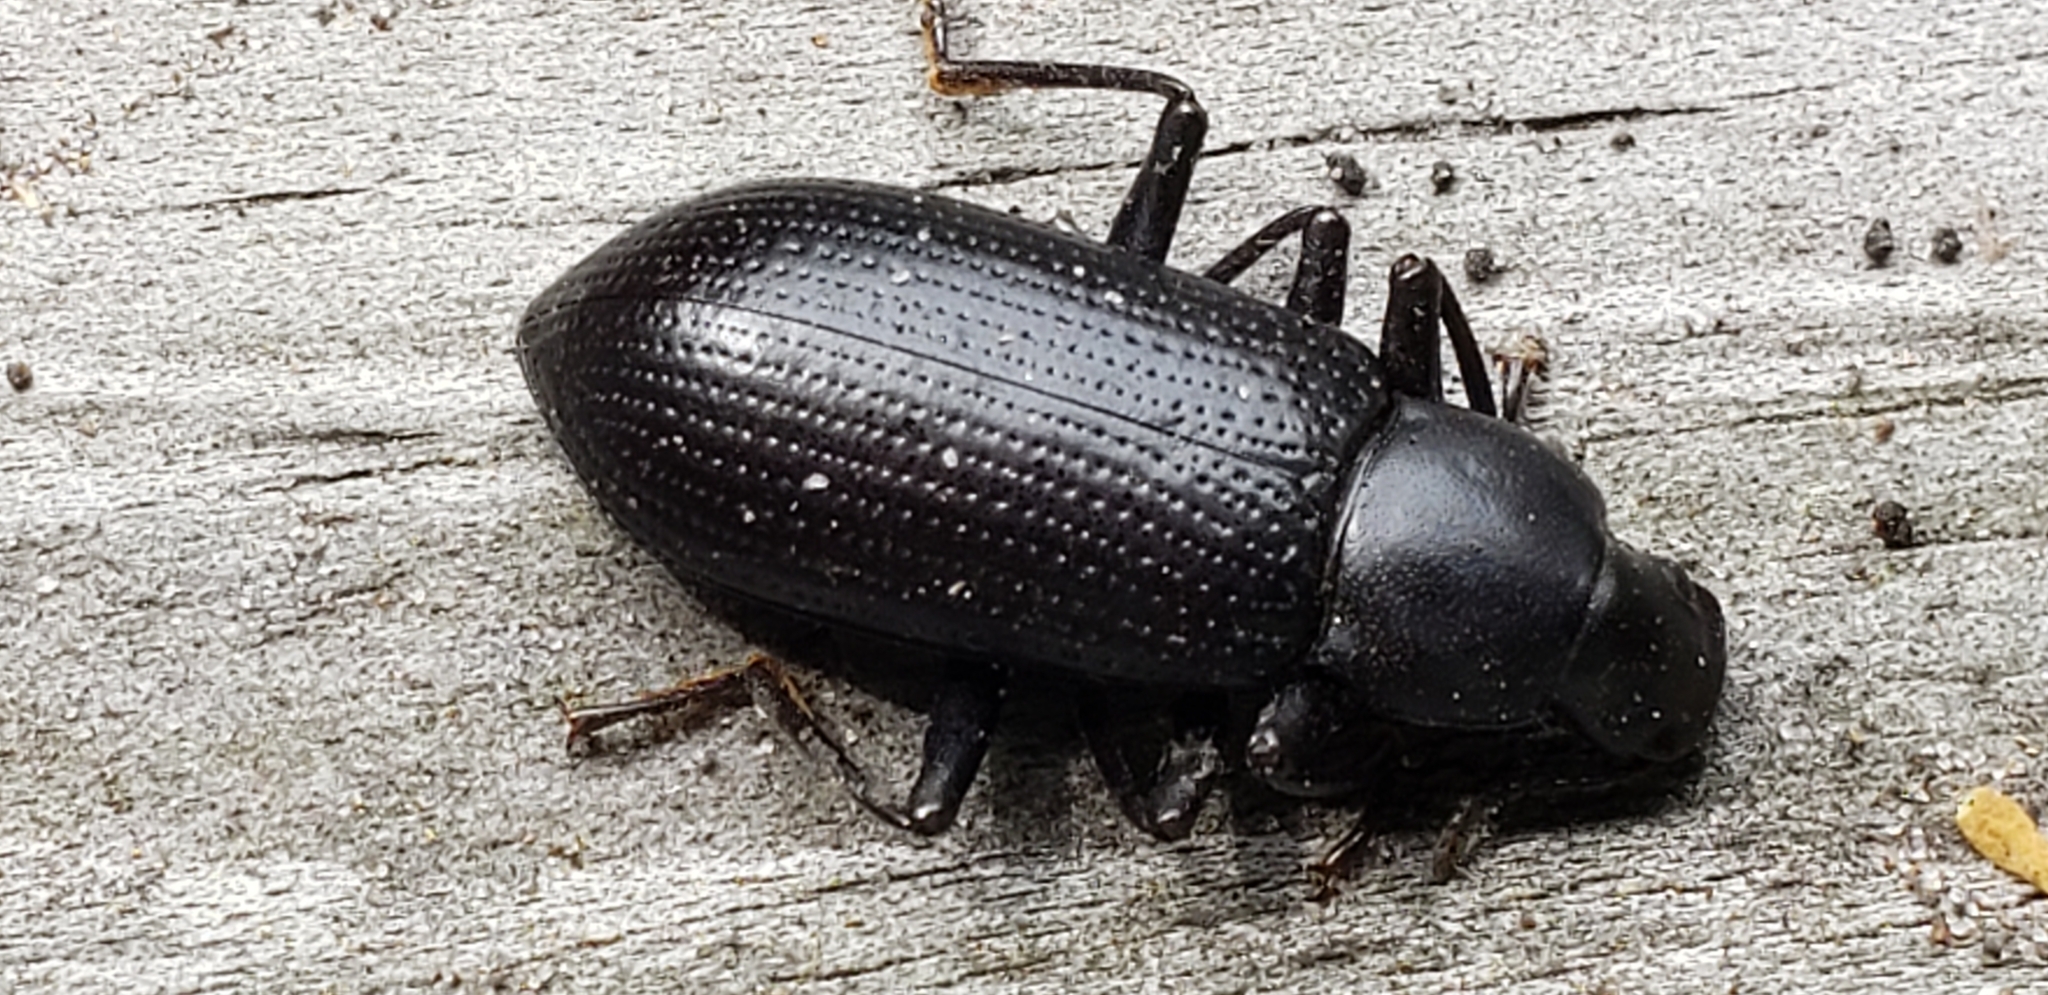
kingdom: Animalia
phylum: Arthropoda
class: Insecta
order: Coleoptera
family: Tenebrionidae
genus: Alobates
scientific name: Alobates
